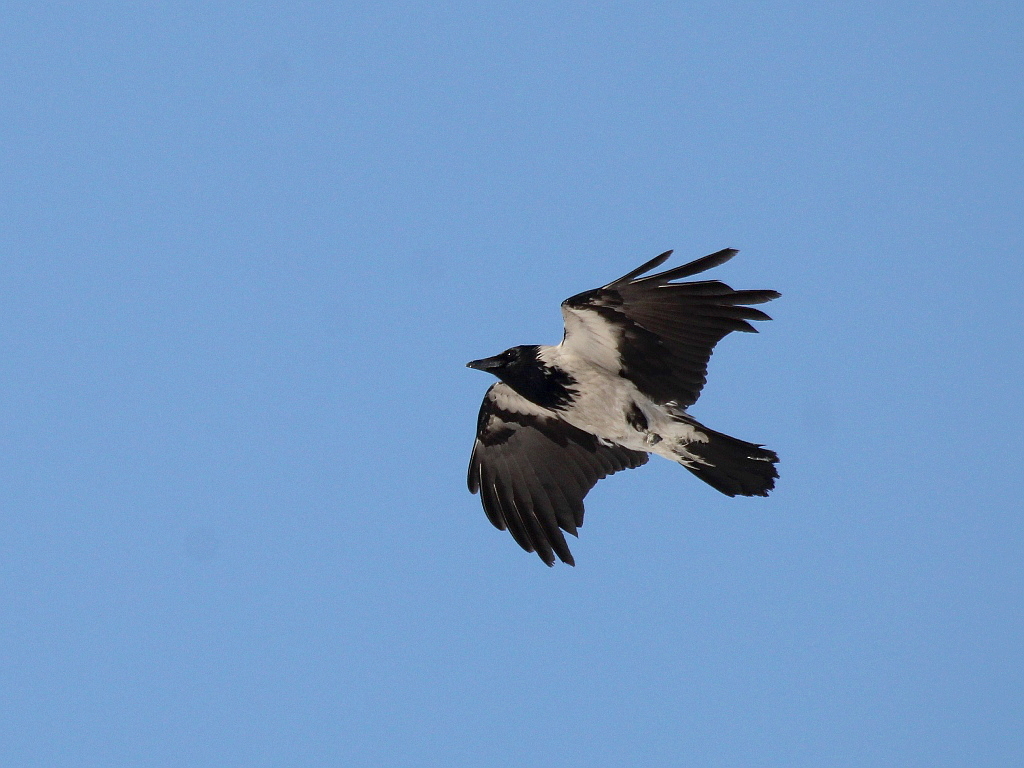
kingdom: Animalia
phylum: Chordata
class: Aves
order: Passeriformes
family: Corvidae
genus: Corvus
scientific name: Corvus cornix
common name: Hooded crow
